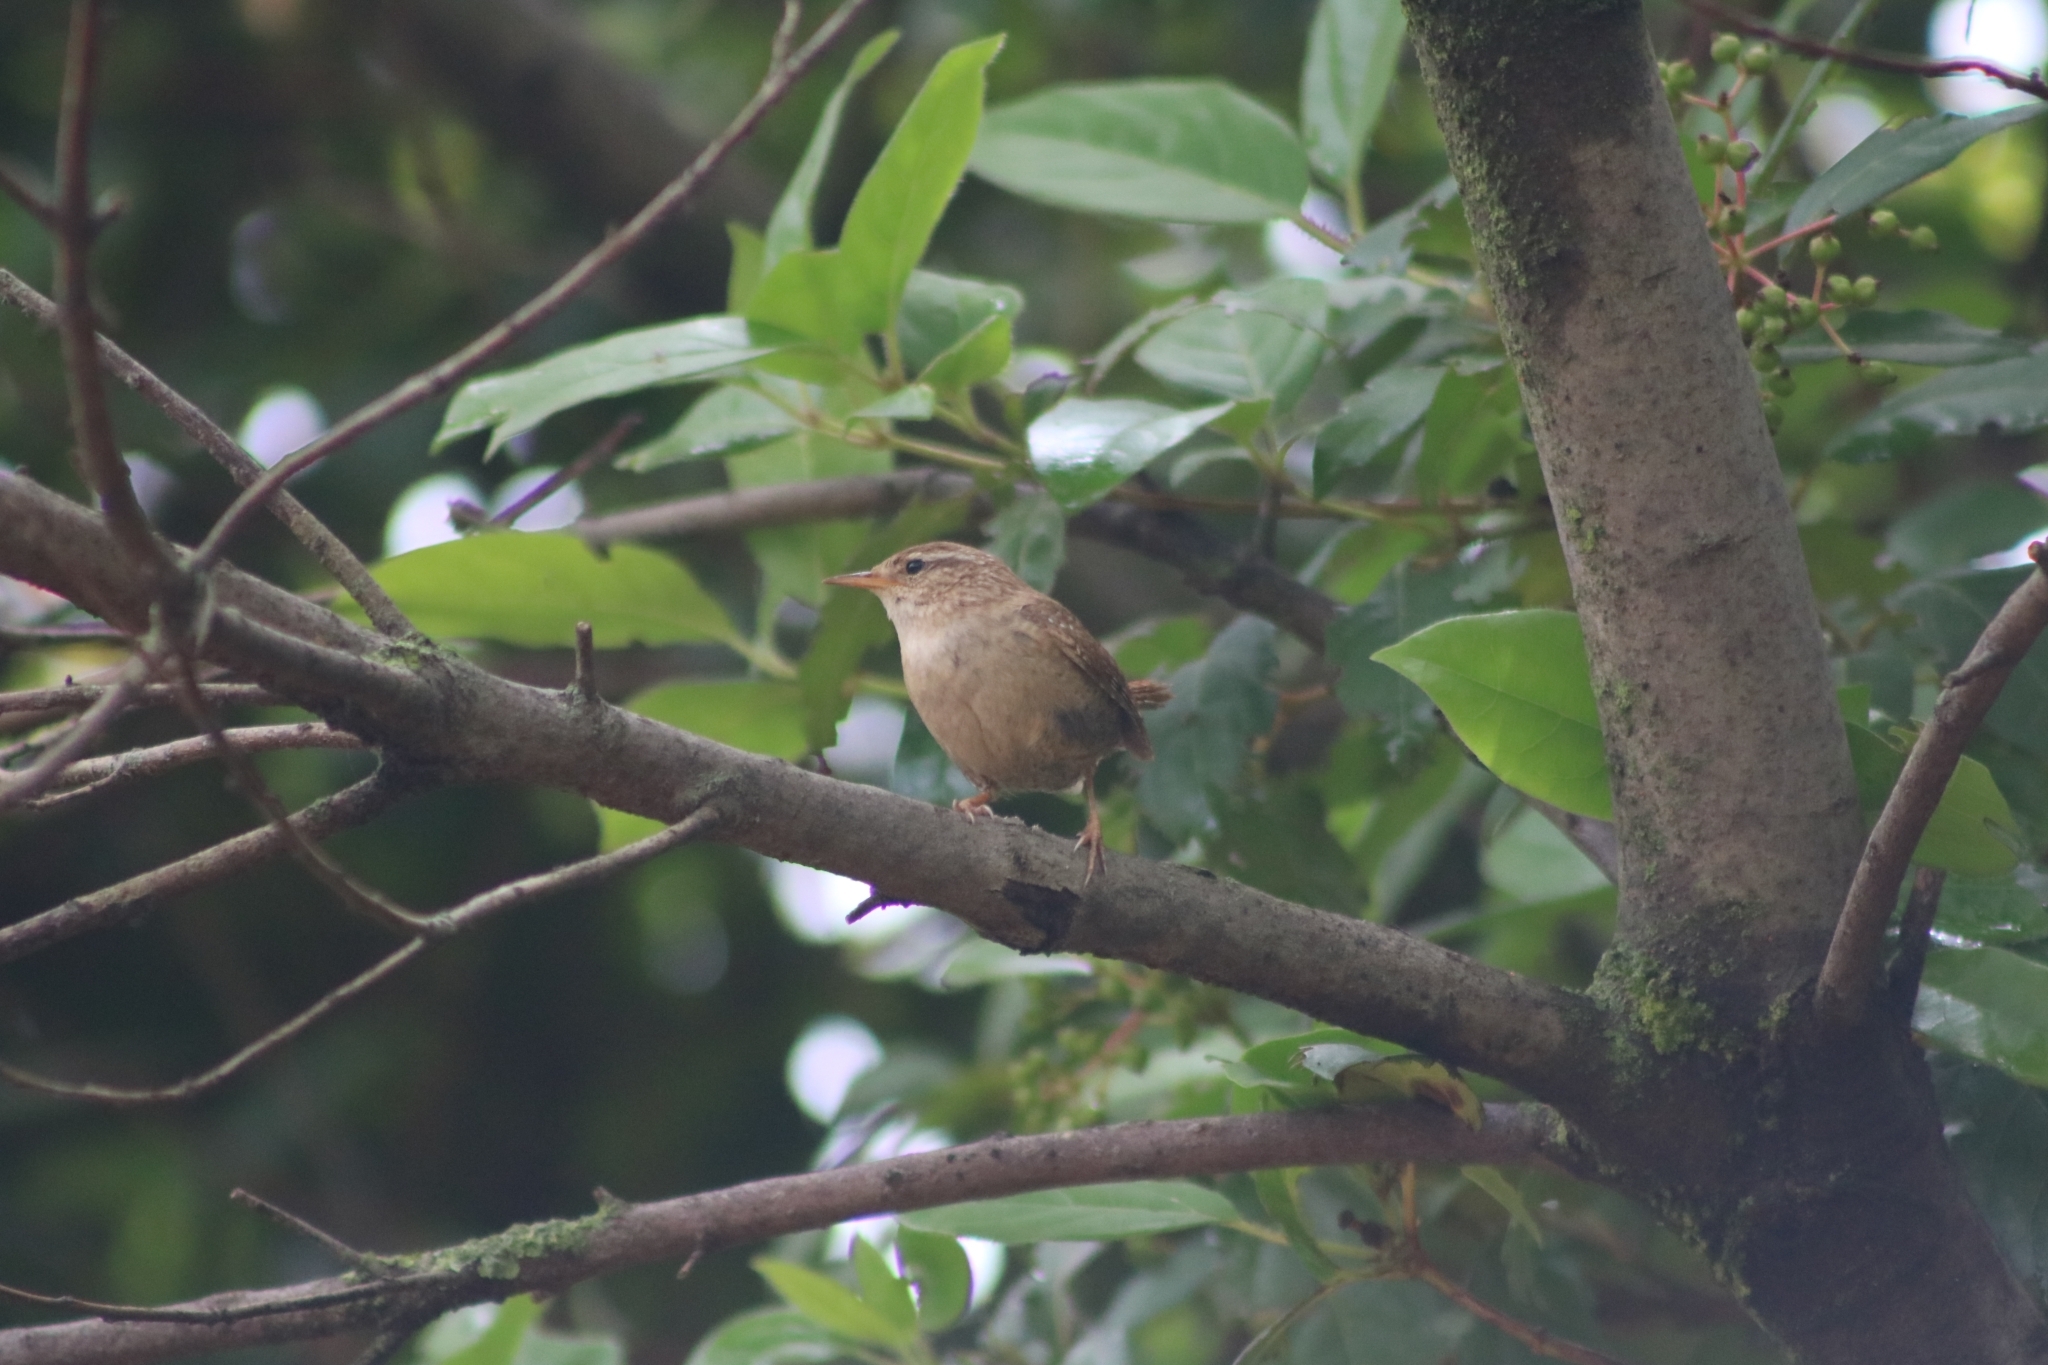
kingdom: Animalia
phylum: Chordata
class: Aves
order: Passeriformes
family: Troglodytidae
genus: Troglodytes
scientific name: Troglodytes troglodytes
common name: Eurasian wren
